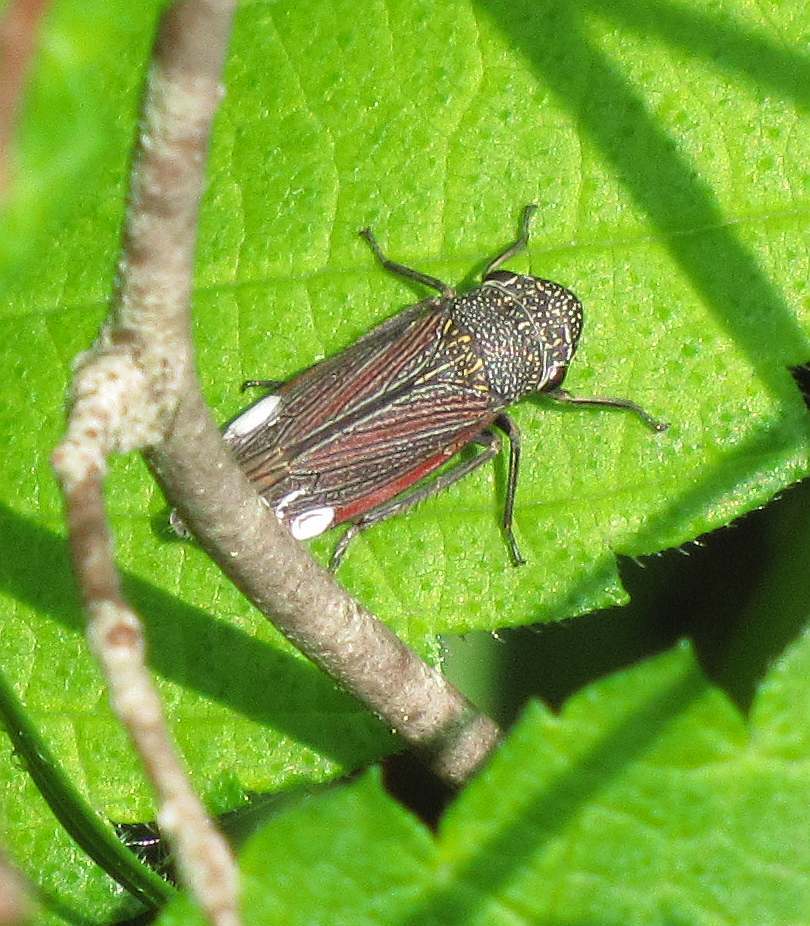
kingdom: Animalia
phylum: Arthropoda
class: Insecta
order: Hemiptera
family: Cicadellidae
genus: Cuerna
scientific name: Cuerna striata
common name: Striped leafhopper
